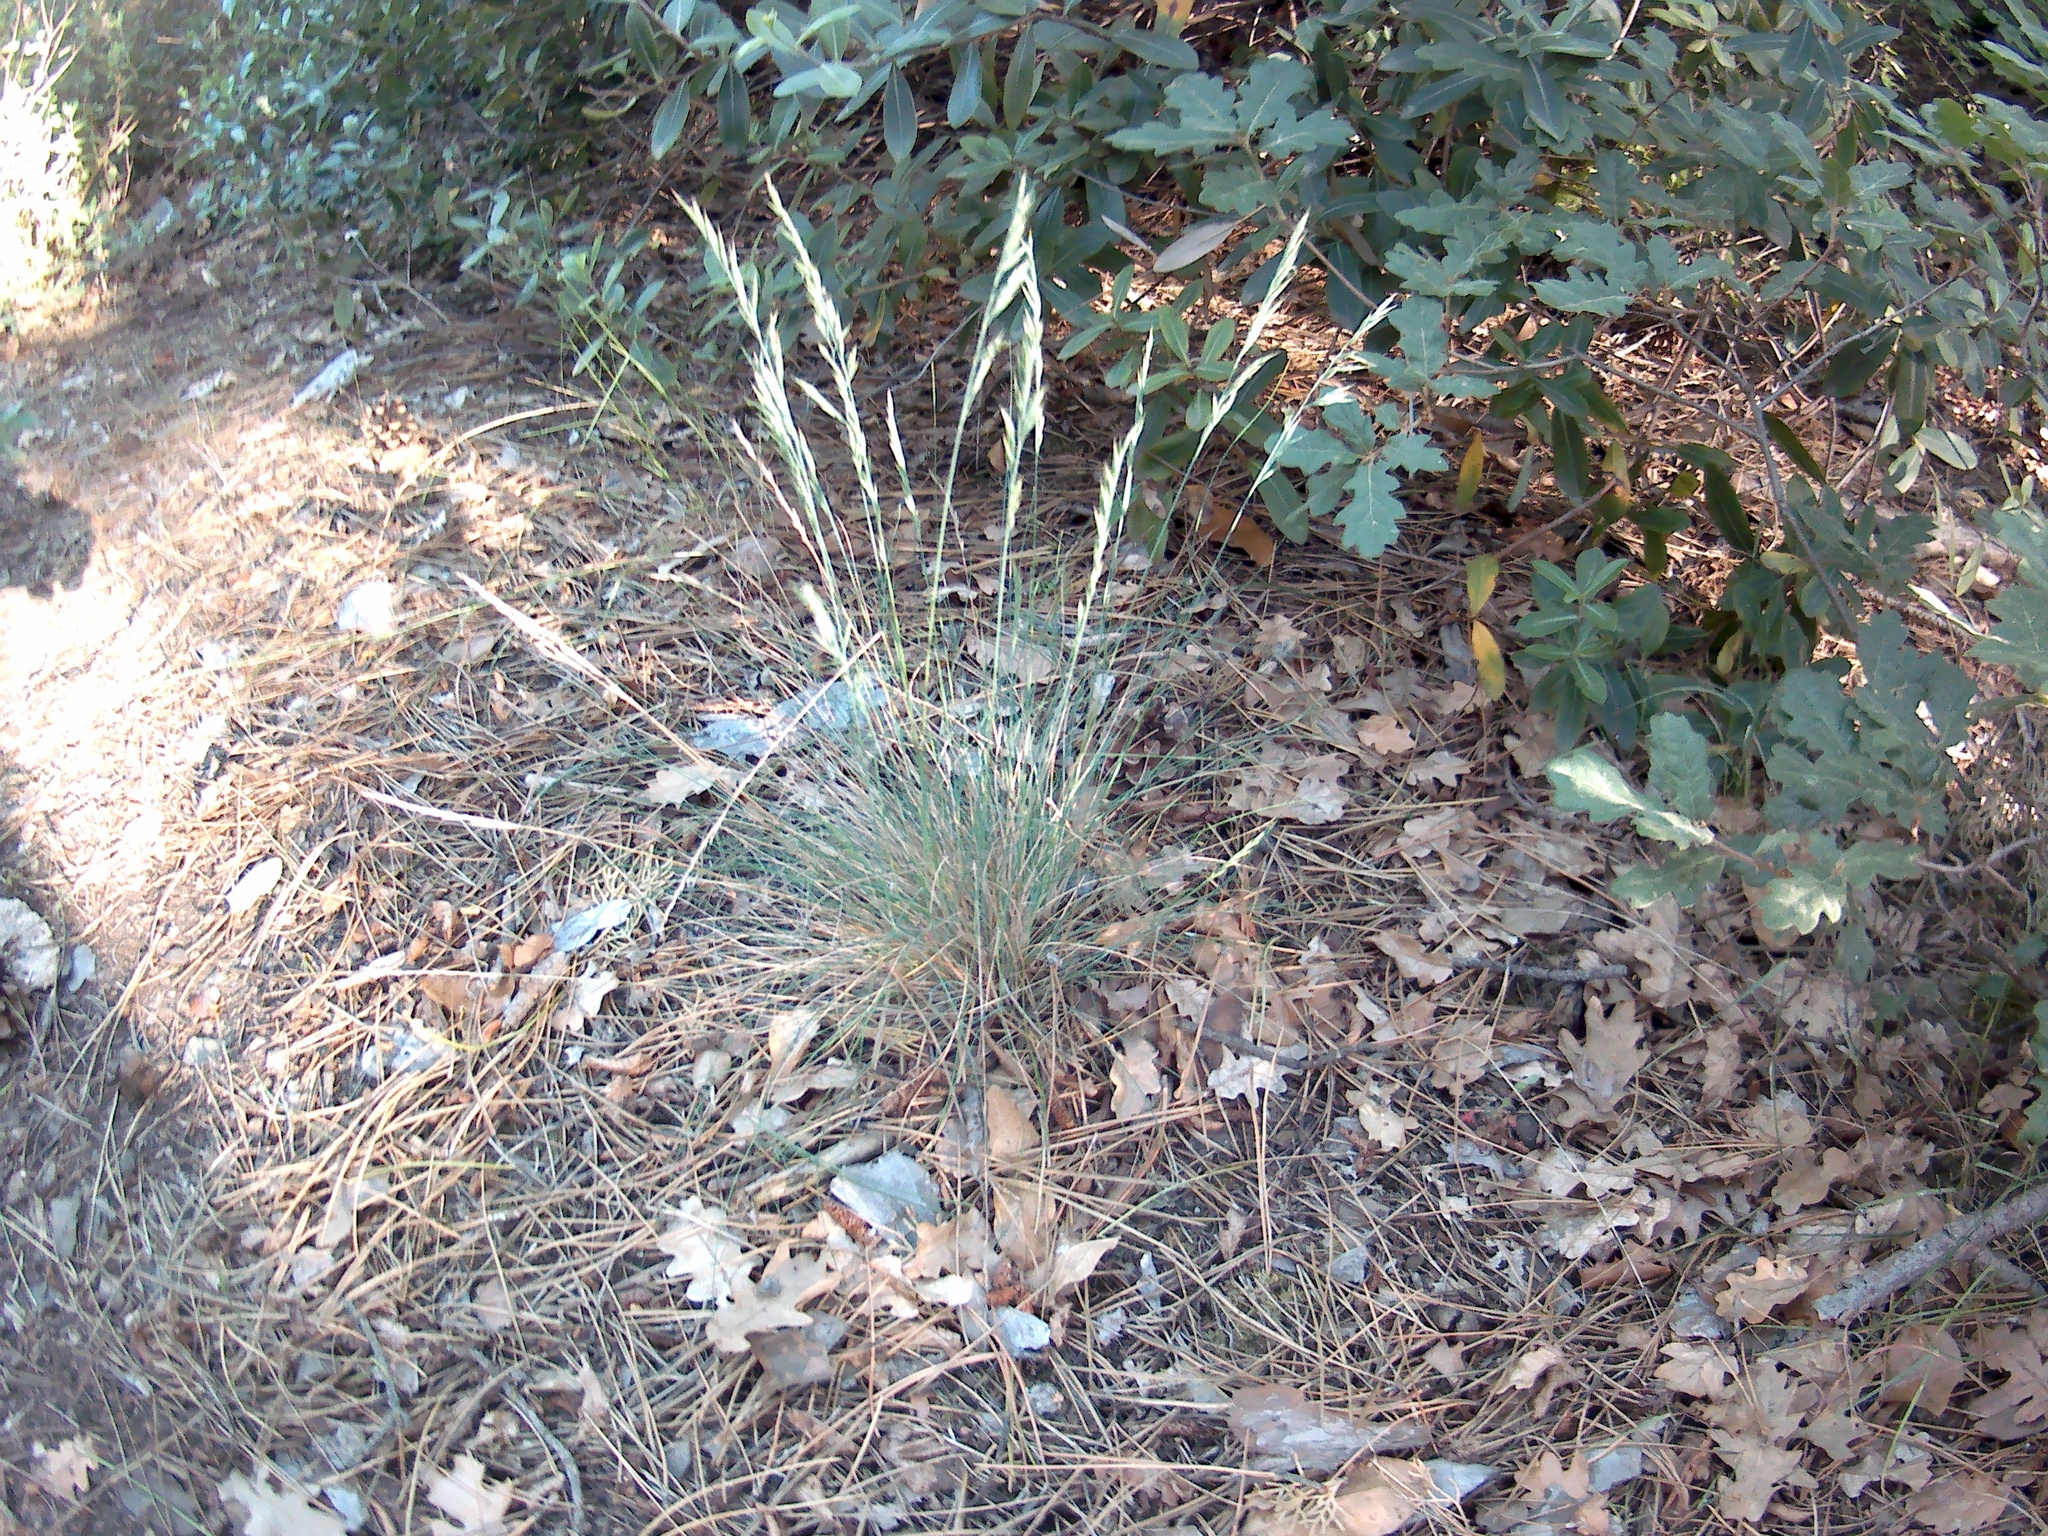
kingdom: Plantae
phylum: Tracheophyta
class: Liliopsida
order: Poales
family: Poaceae
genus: Festuca
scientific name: Festuca valesiaca
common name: Volga fescue
